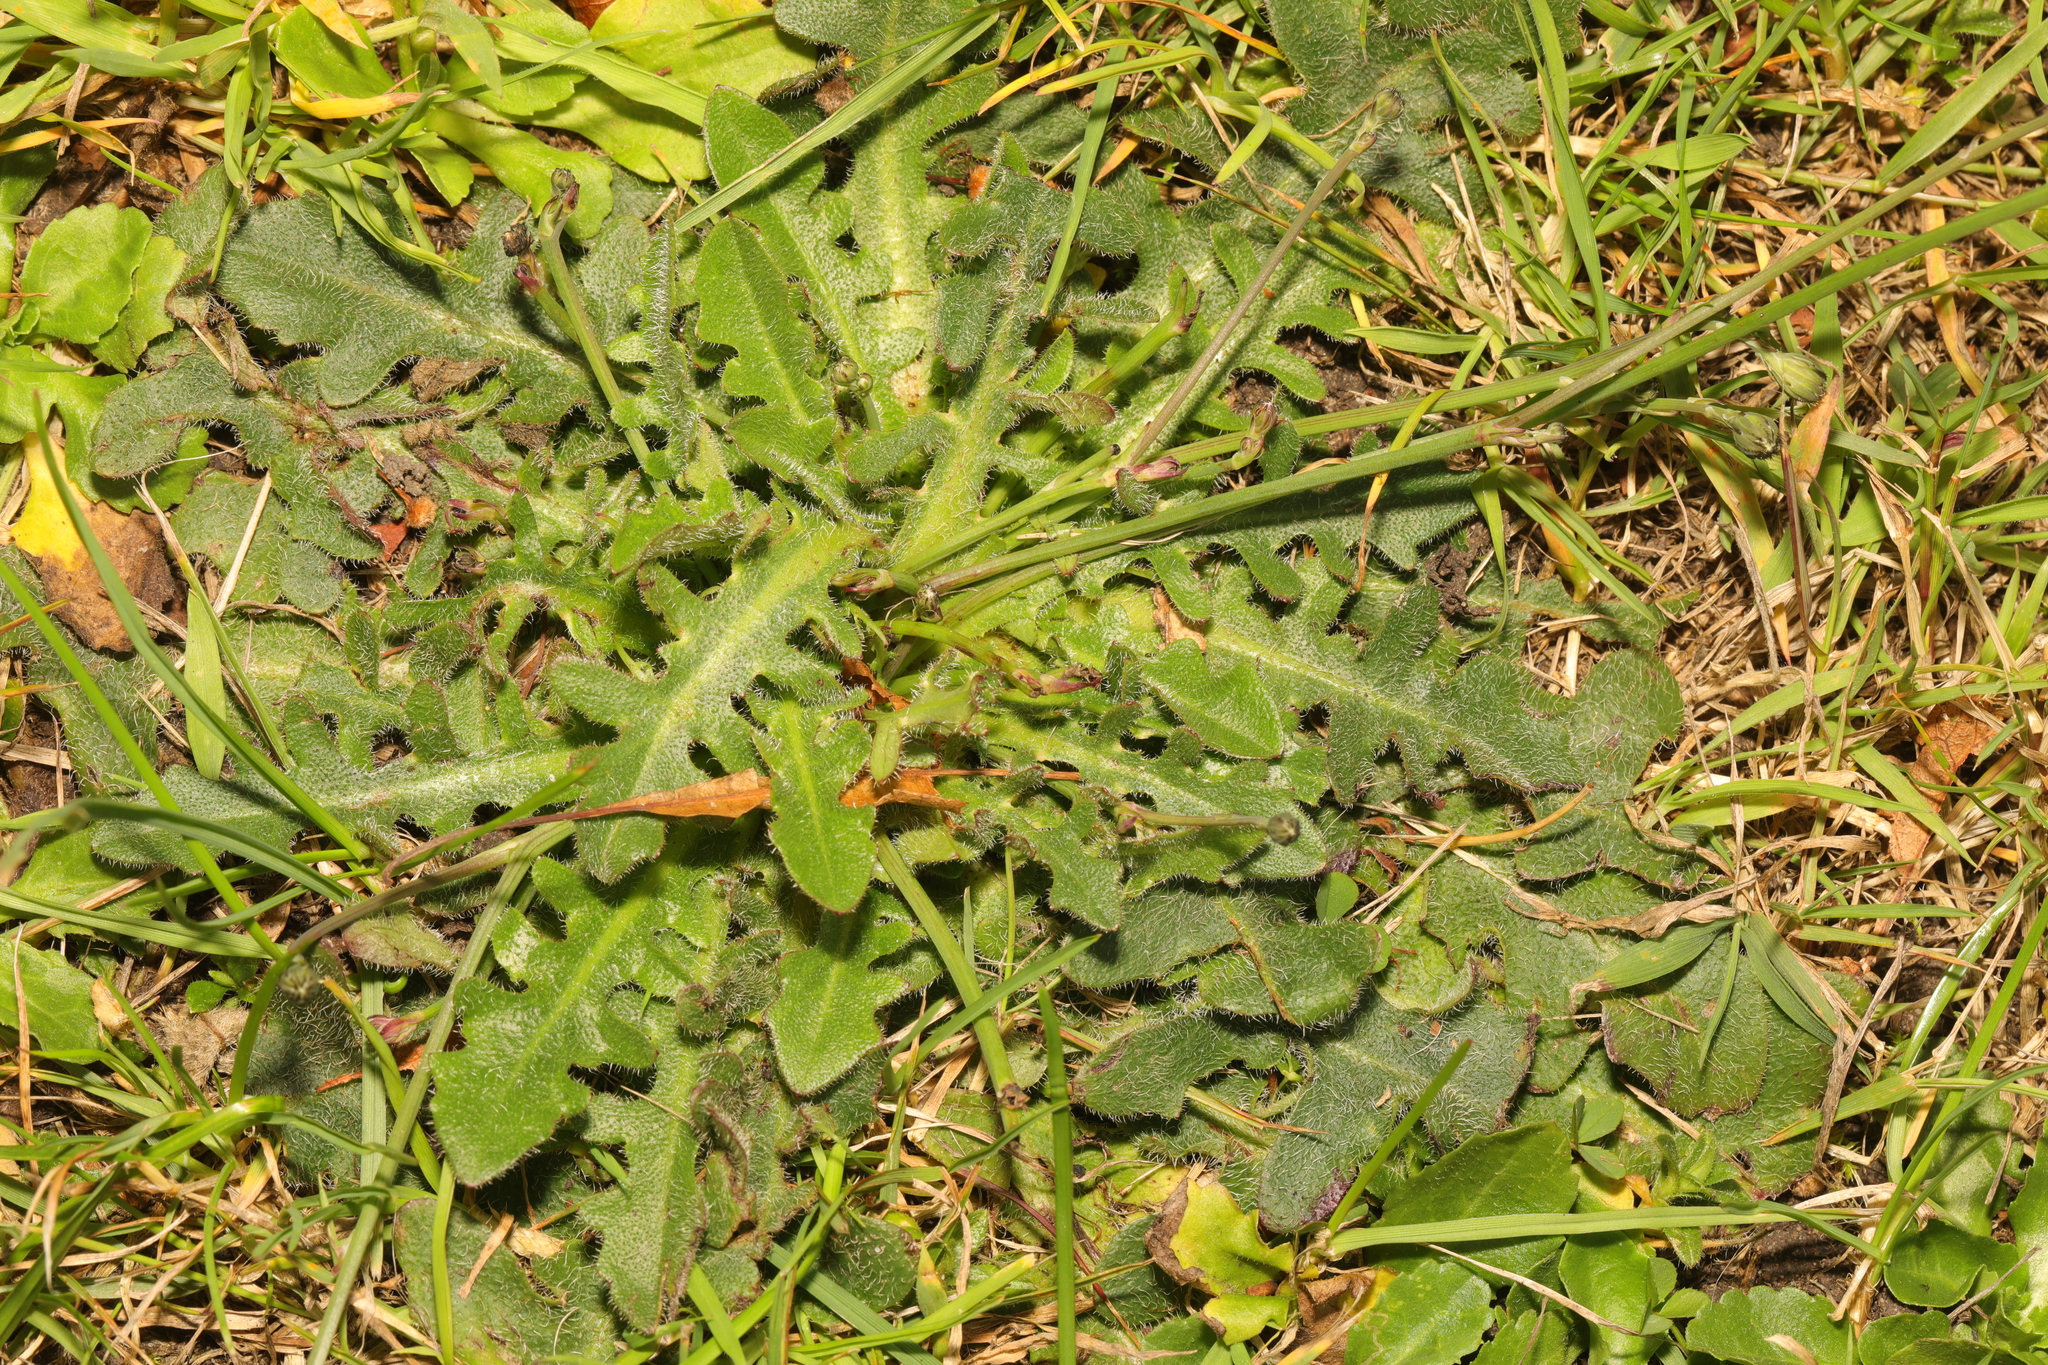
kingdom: Plantae
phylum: Tracheophyta
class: Magnoliopsida
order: Asterales
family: Asteraceae
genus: Hypochaeris
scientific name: Hypochaeris radicata
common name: Flatweed
